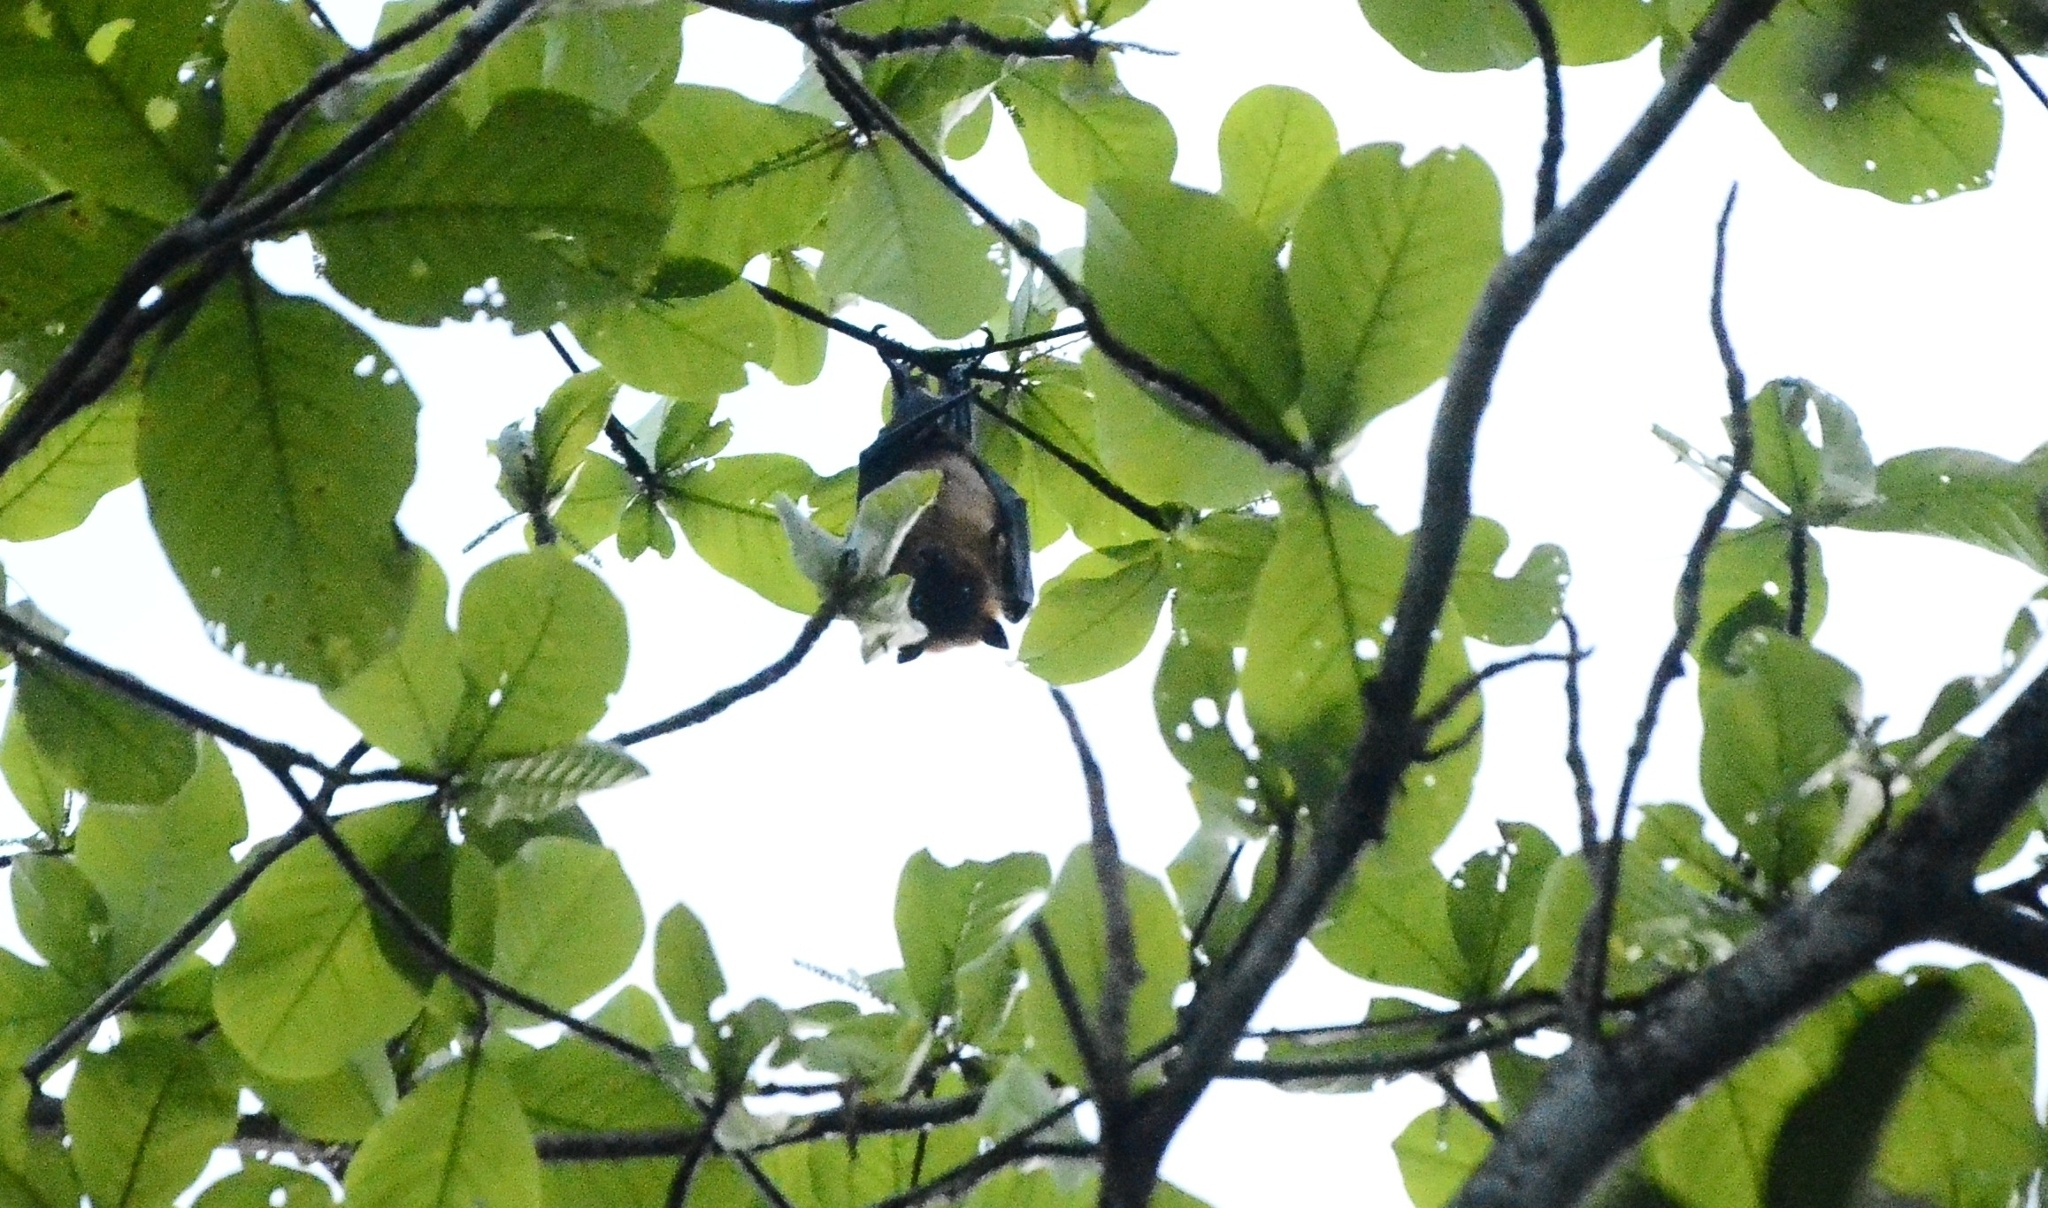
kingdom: Animalia
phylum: Chordata
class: Mammalia
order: Chiroptera
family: Pteropodidae
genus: Pteropus
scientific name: Pteropus vampyrus
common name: Large flying fox
